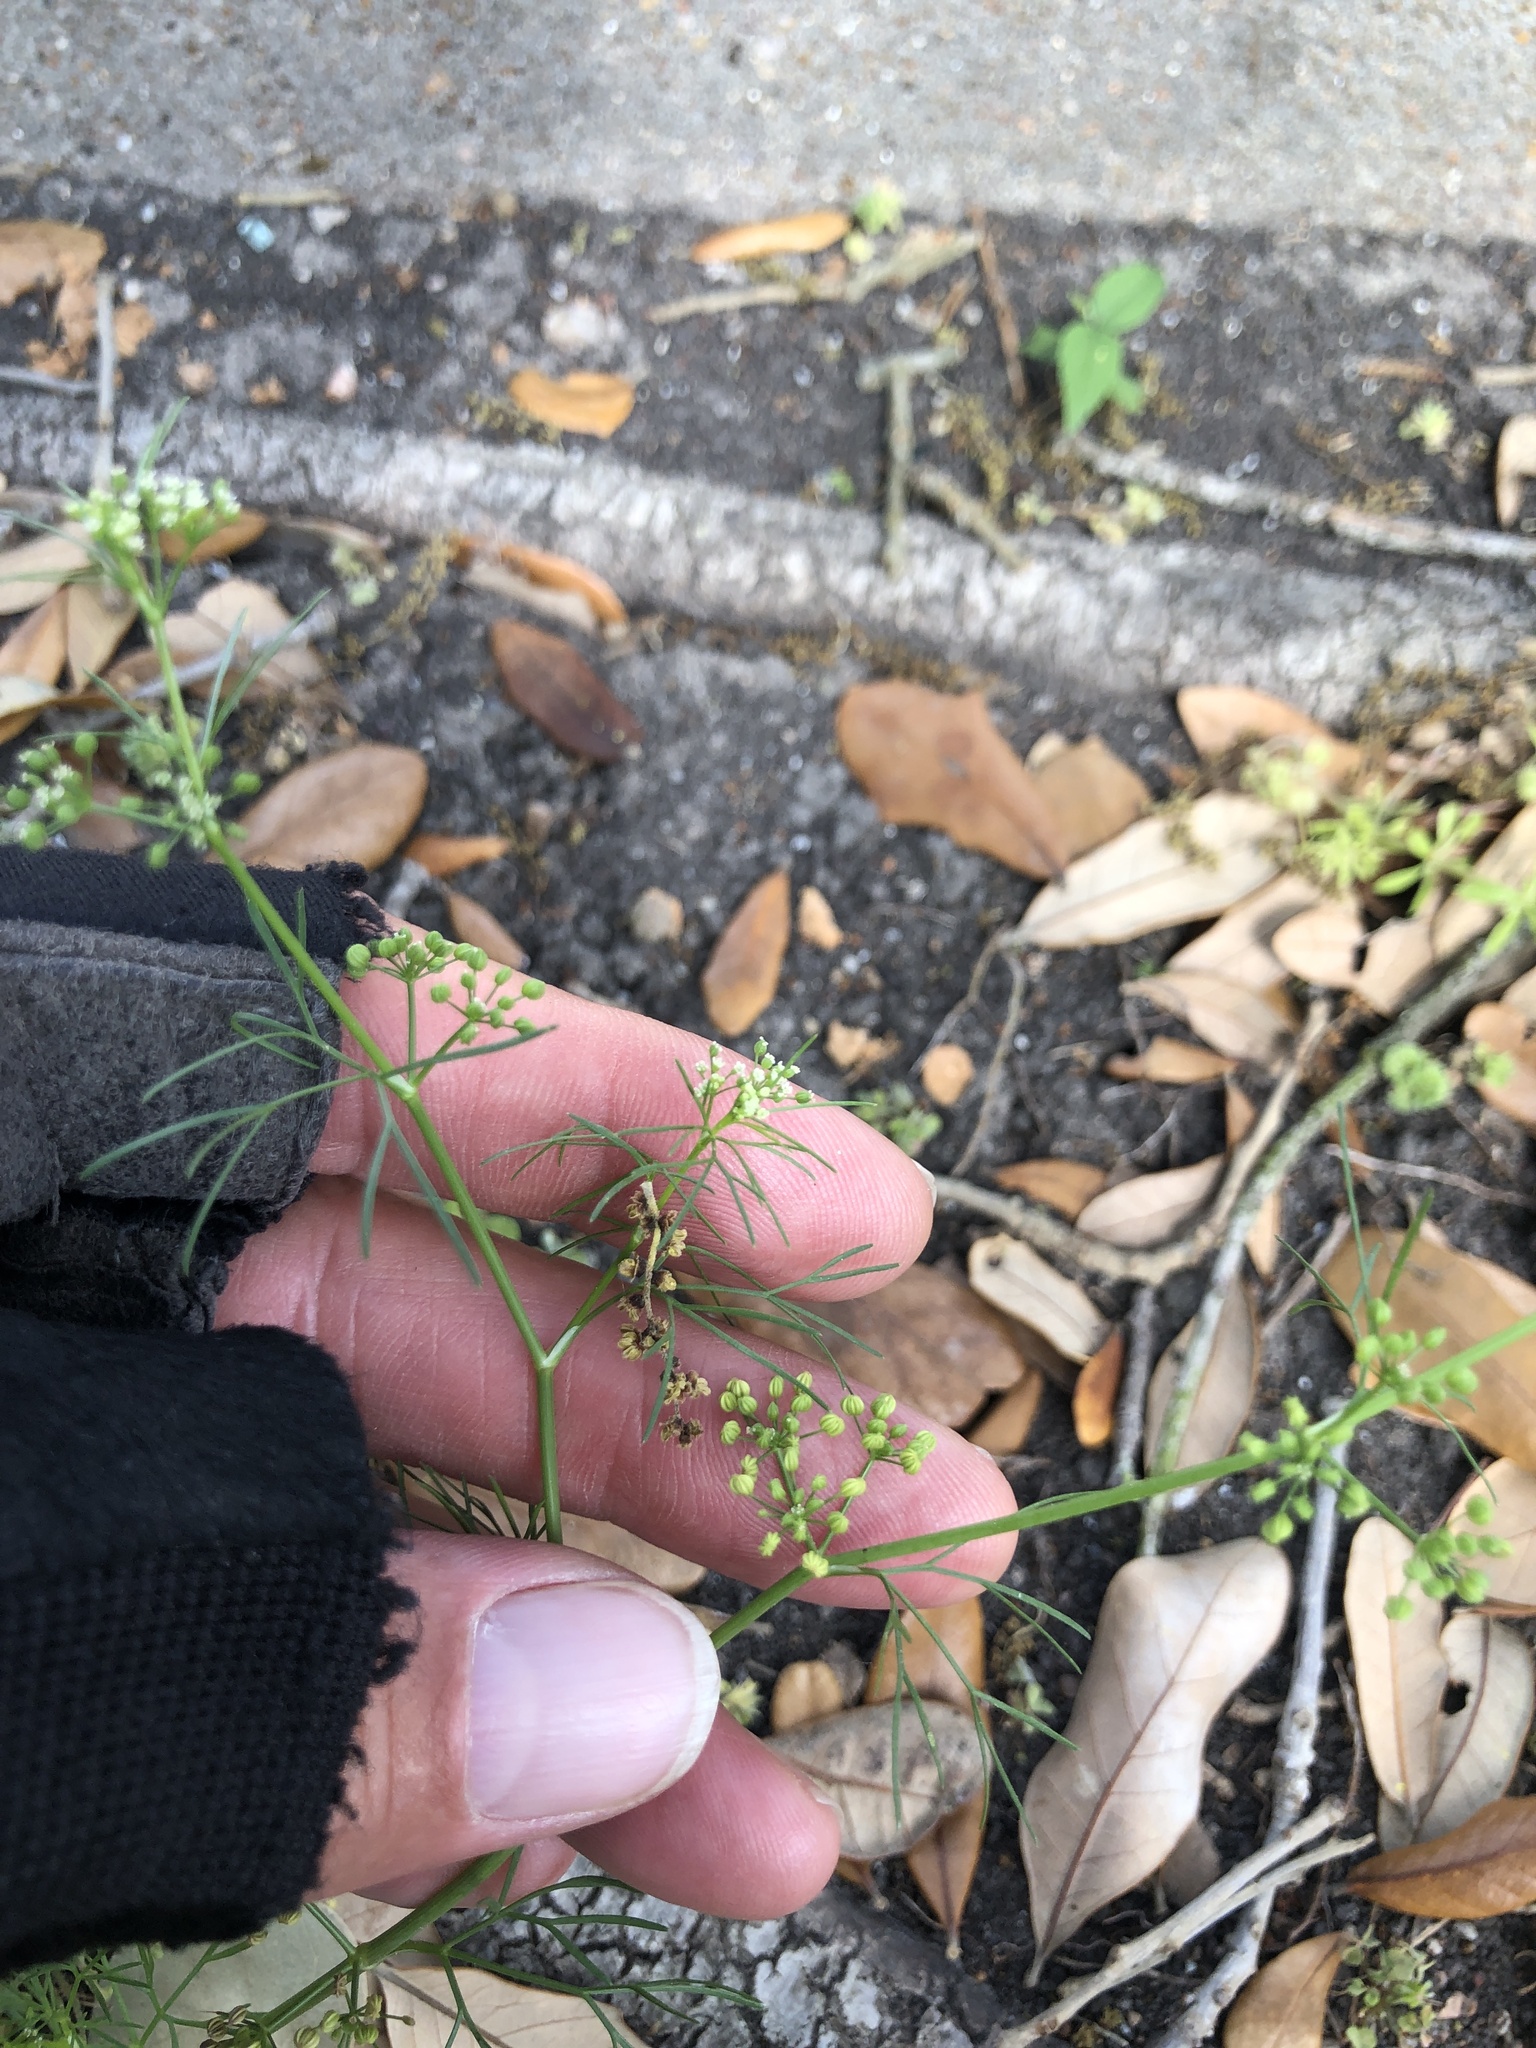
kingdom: Plantae
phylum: Tracheophyta
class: Magnoliopsida
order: Apiales
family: Apiaceae
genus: Cyclospermum
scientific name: Cyclospermum leptophyllum
